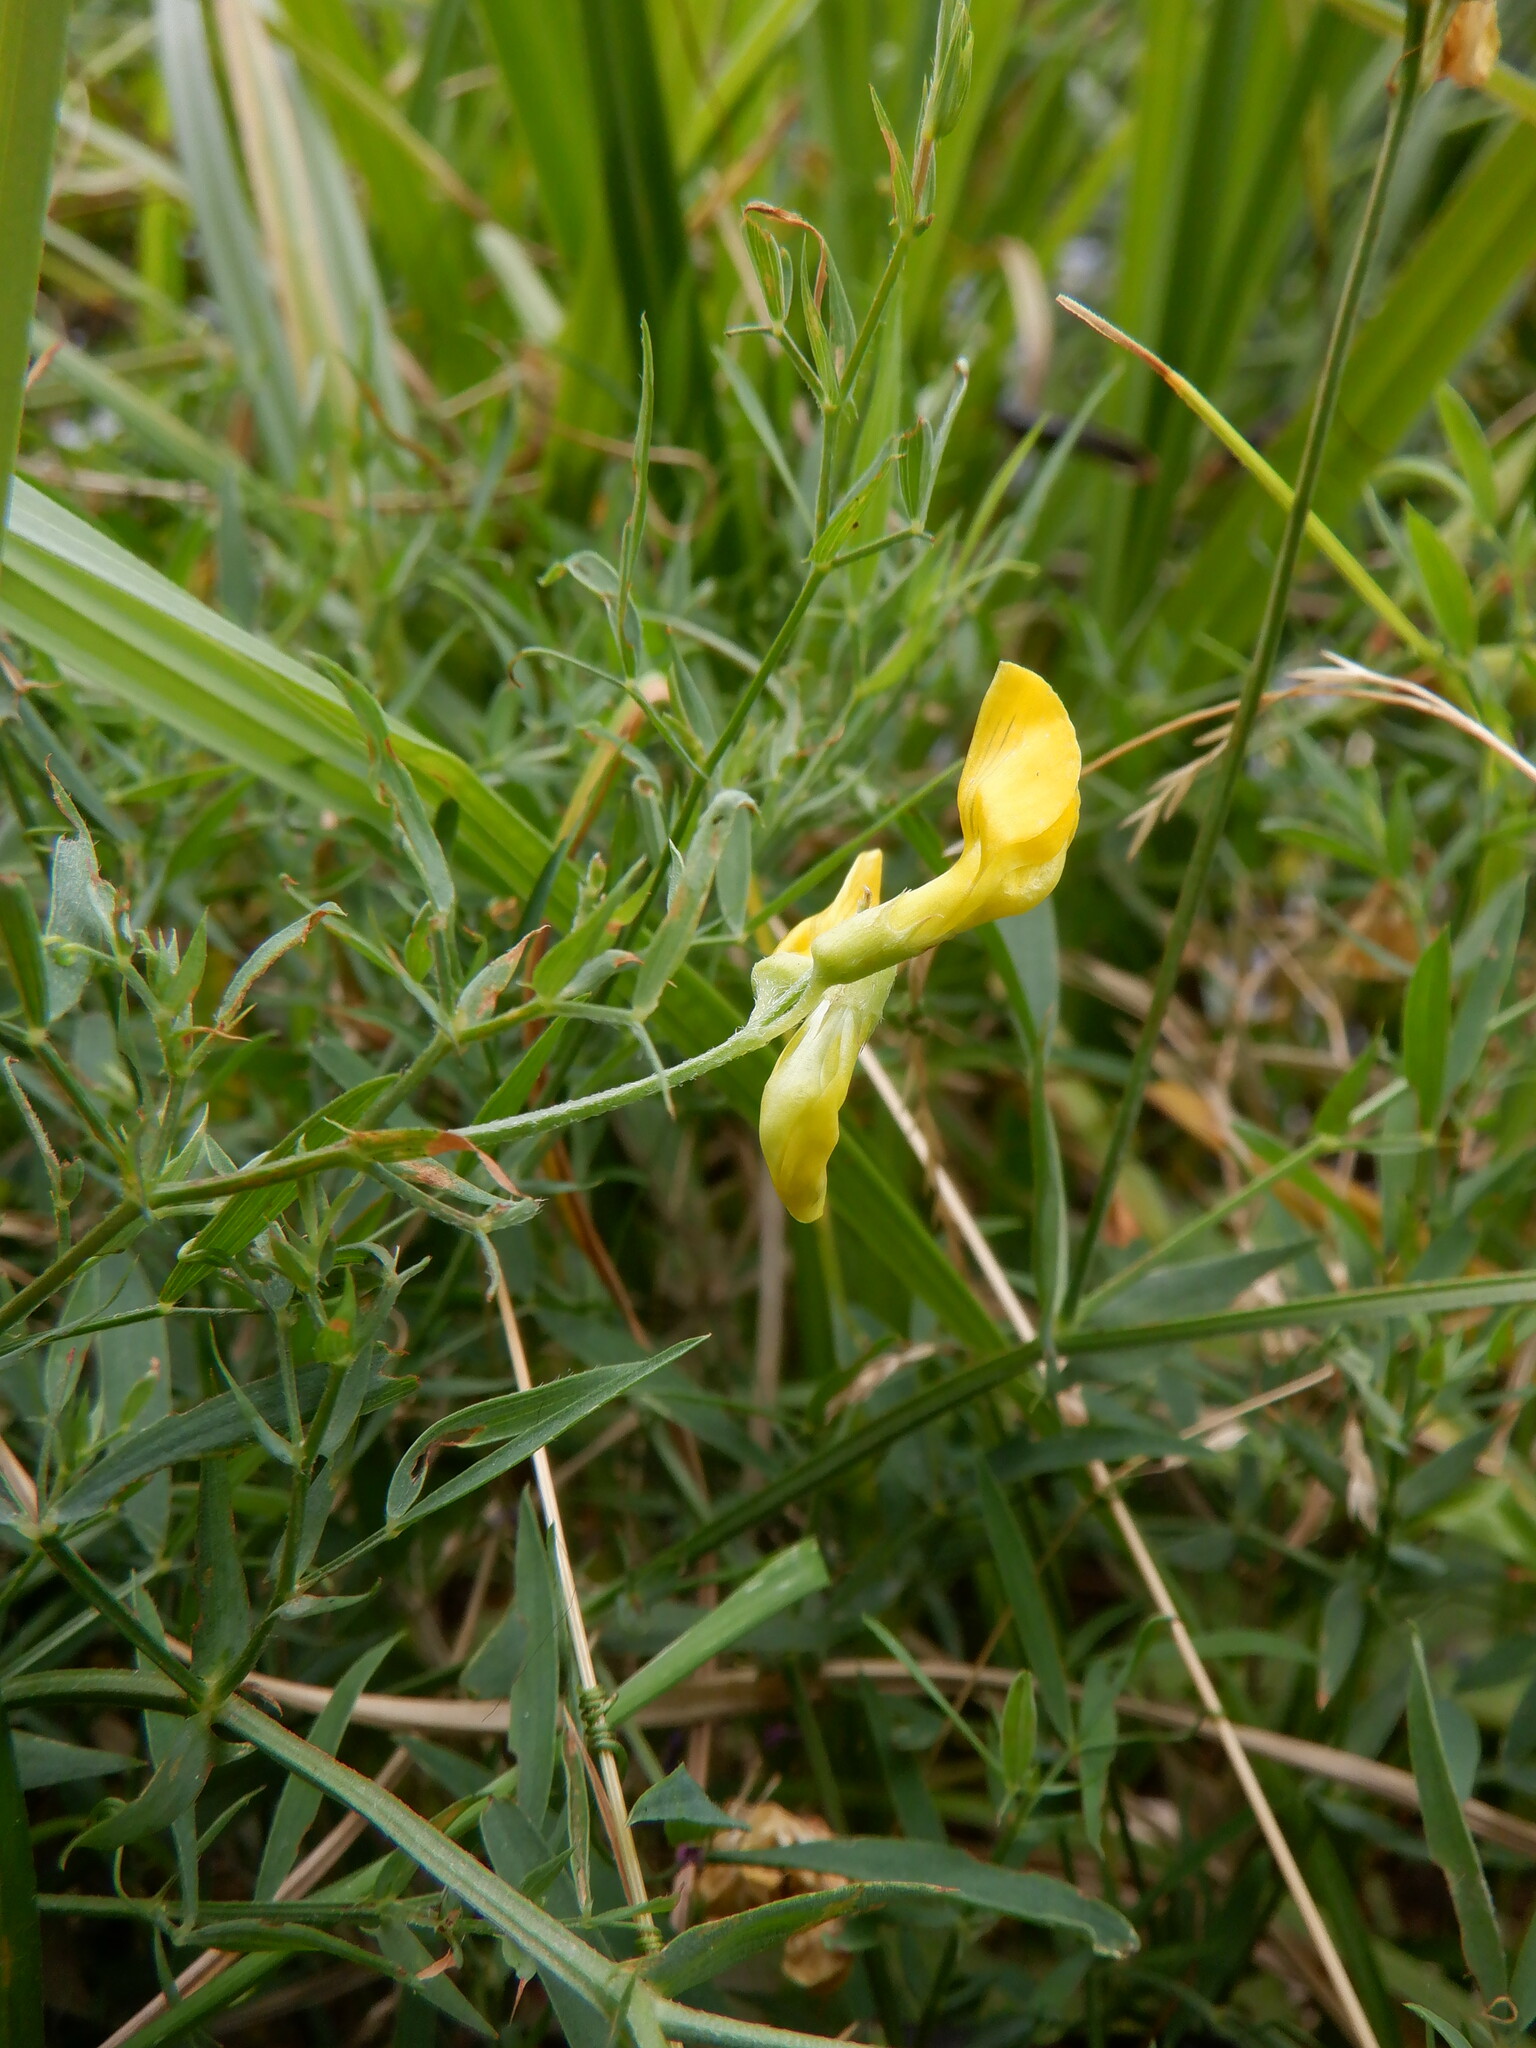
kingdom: Plantae
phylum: Tracheophyta
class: Magnoliopsida
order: Fabales
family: Fabaceae
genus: Lathyrus
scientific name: Lathyrus pratensis
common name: Meadow vetchling
